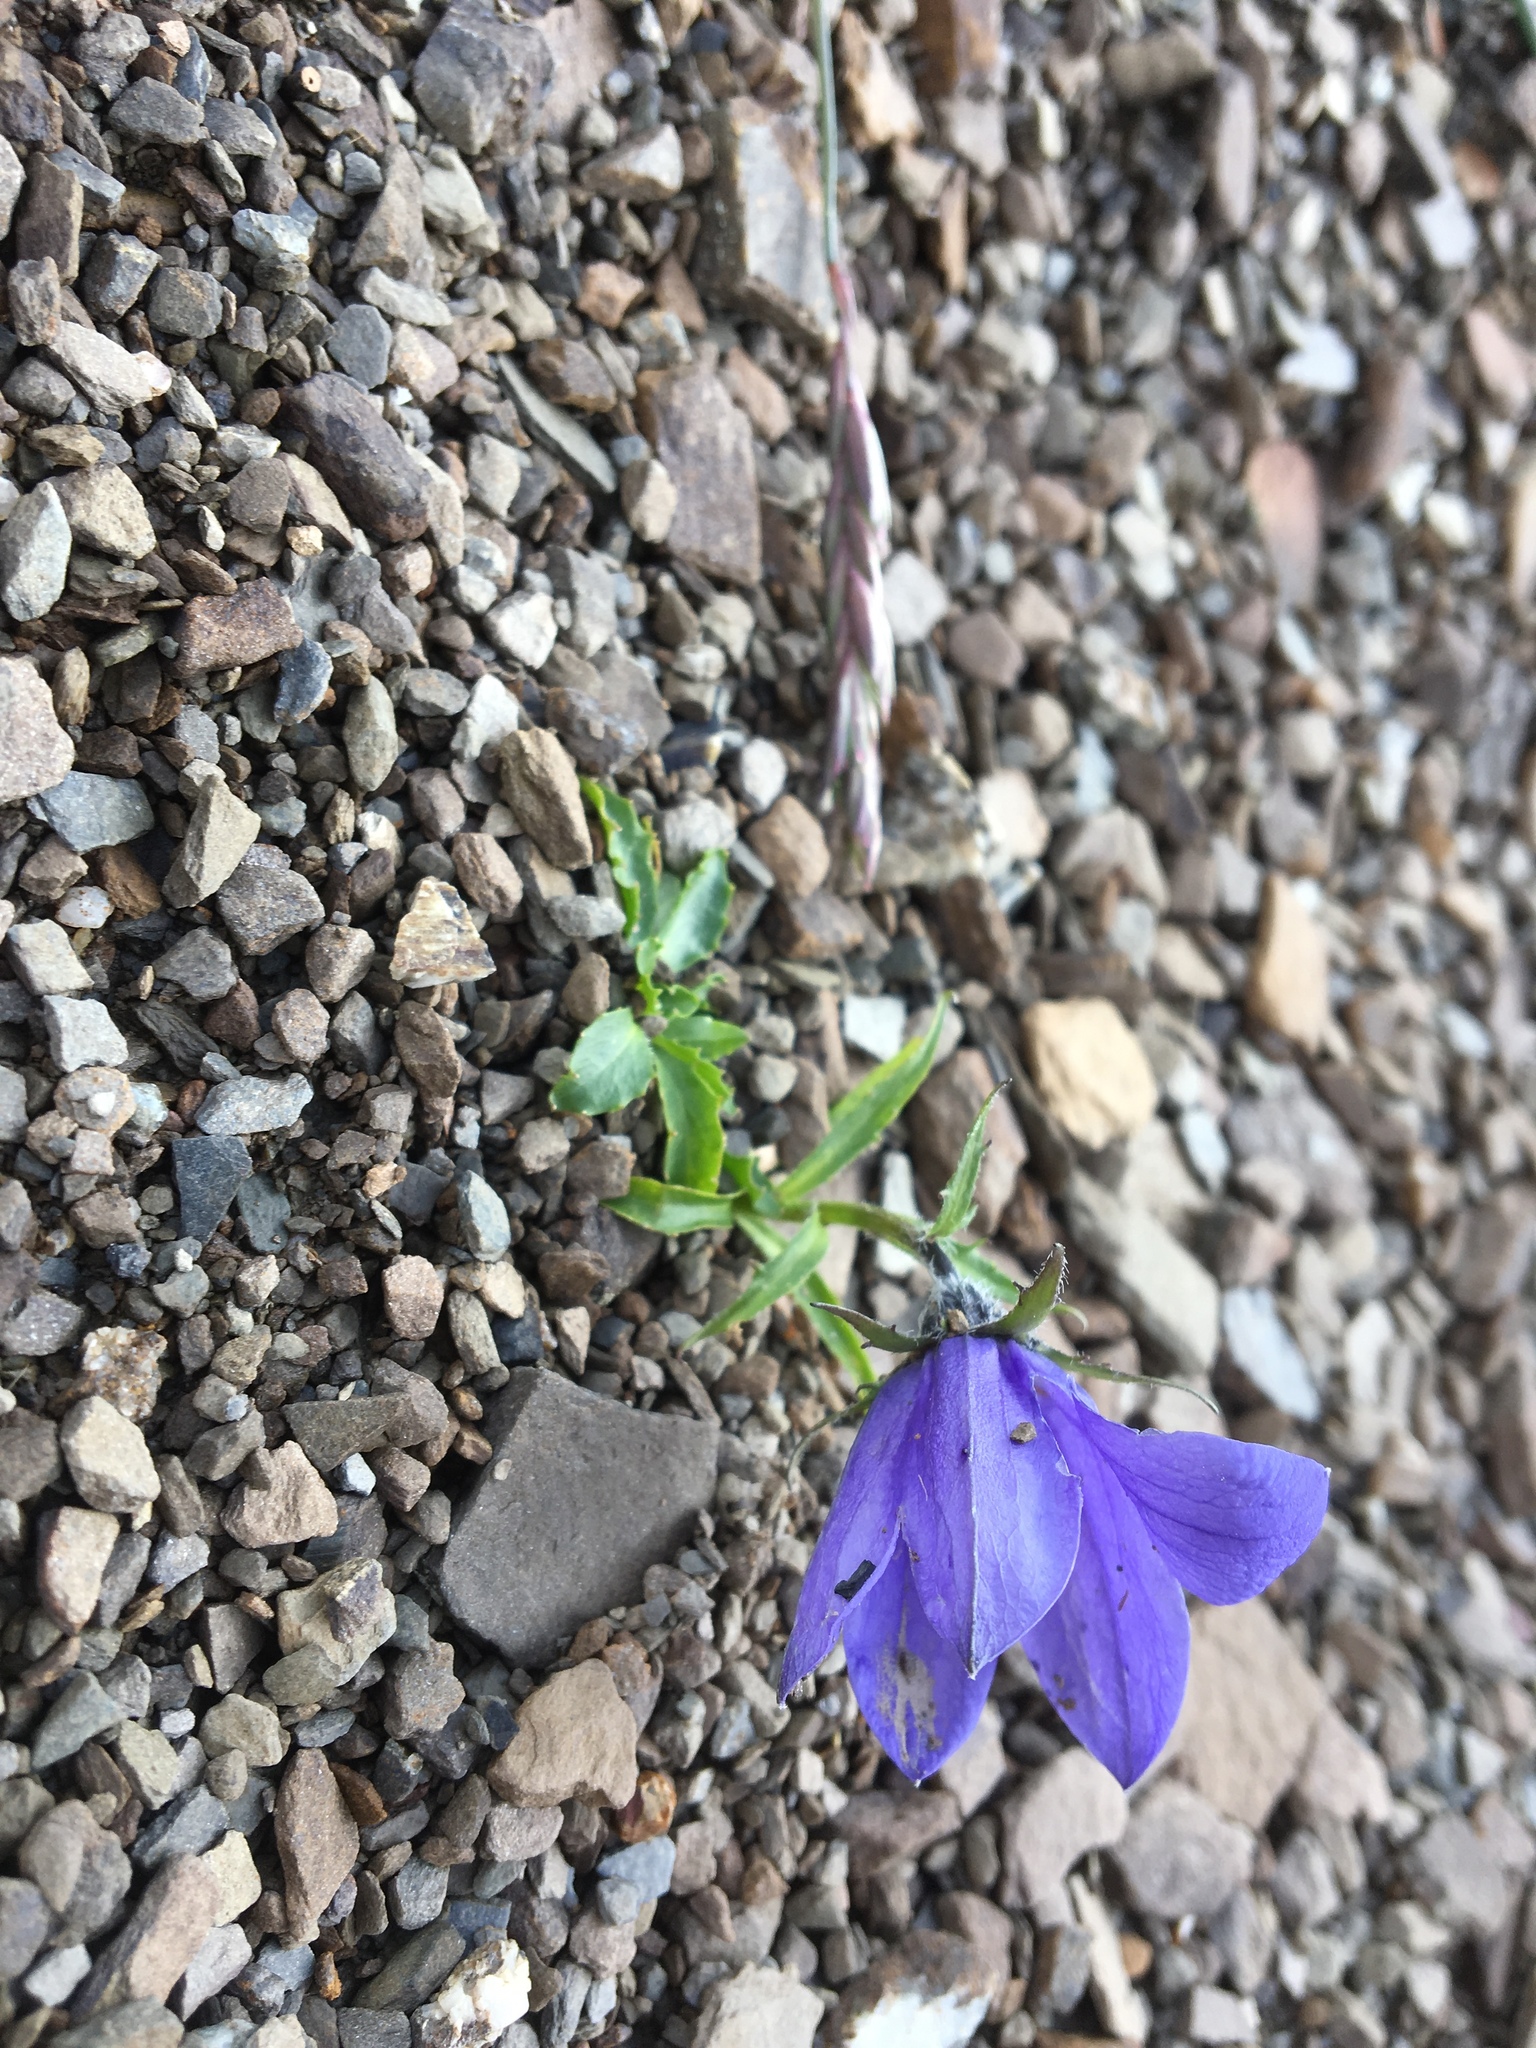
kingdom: Plantae
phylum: Tracheophyta
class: Magnoliopsida
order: Asterales
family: Campanulaceae
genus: Campanula
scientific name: Campanula lasiocarpa
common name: Mountain harebell
